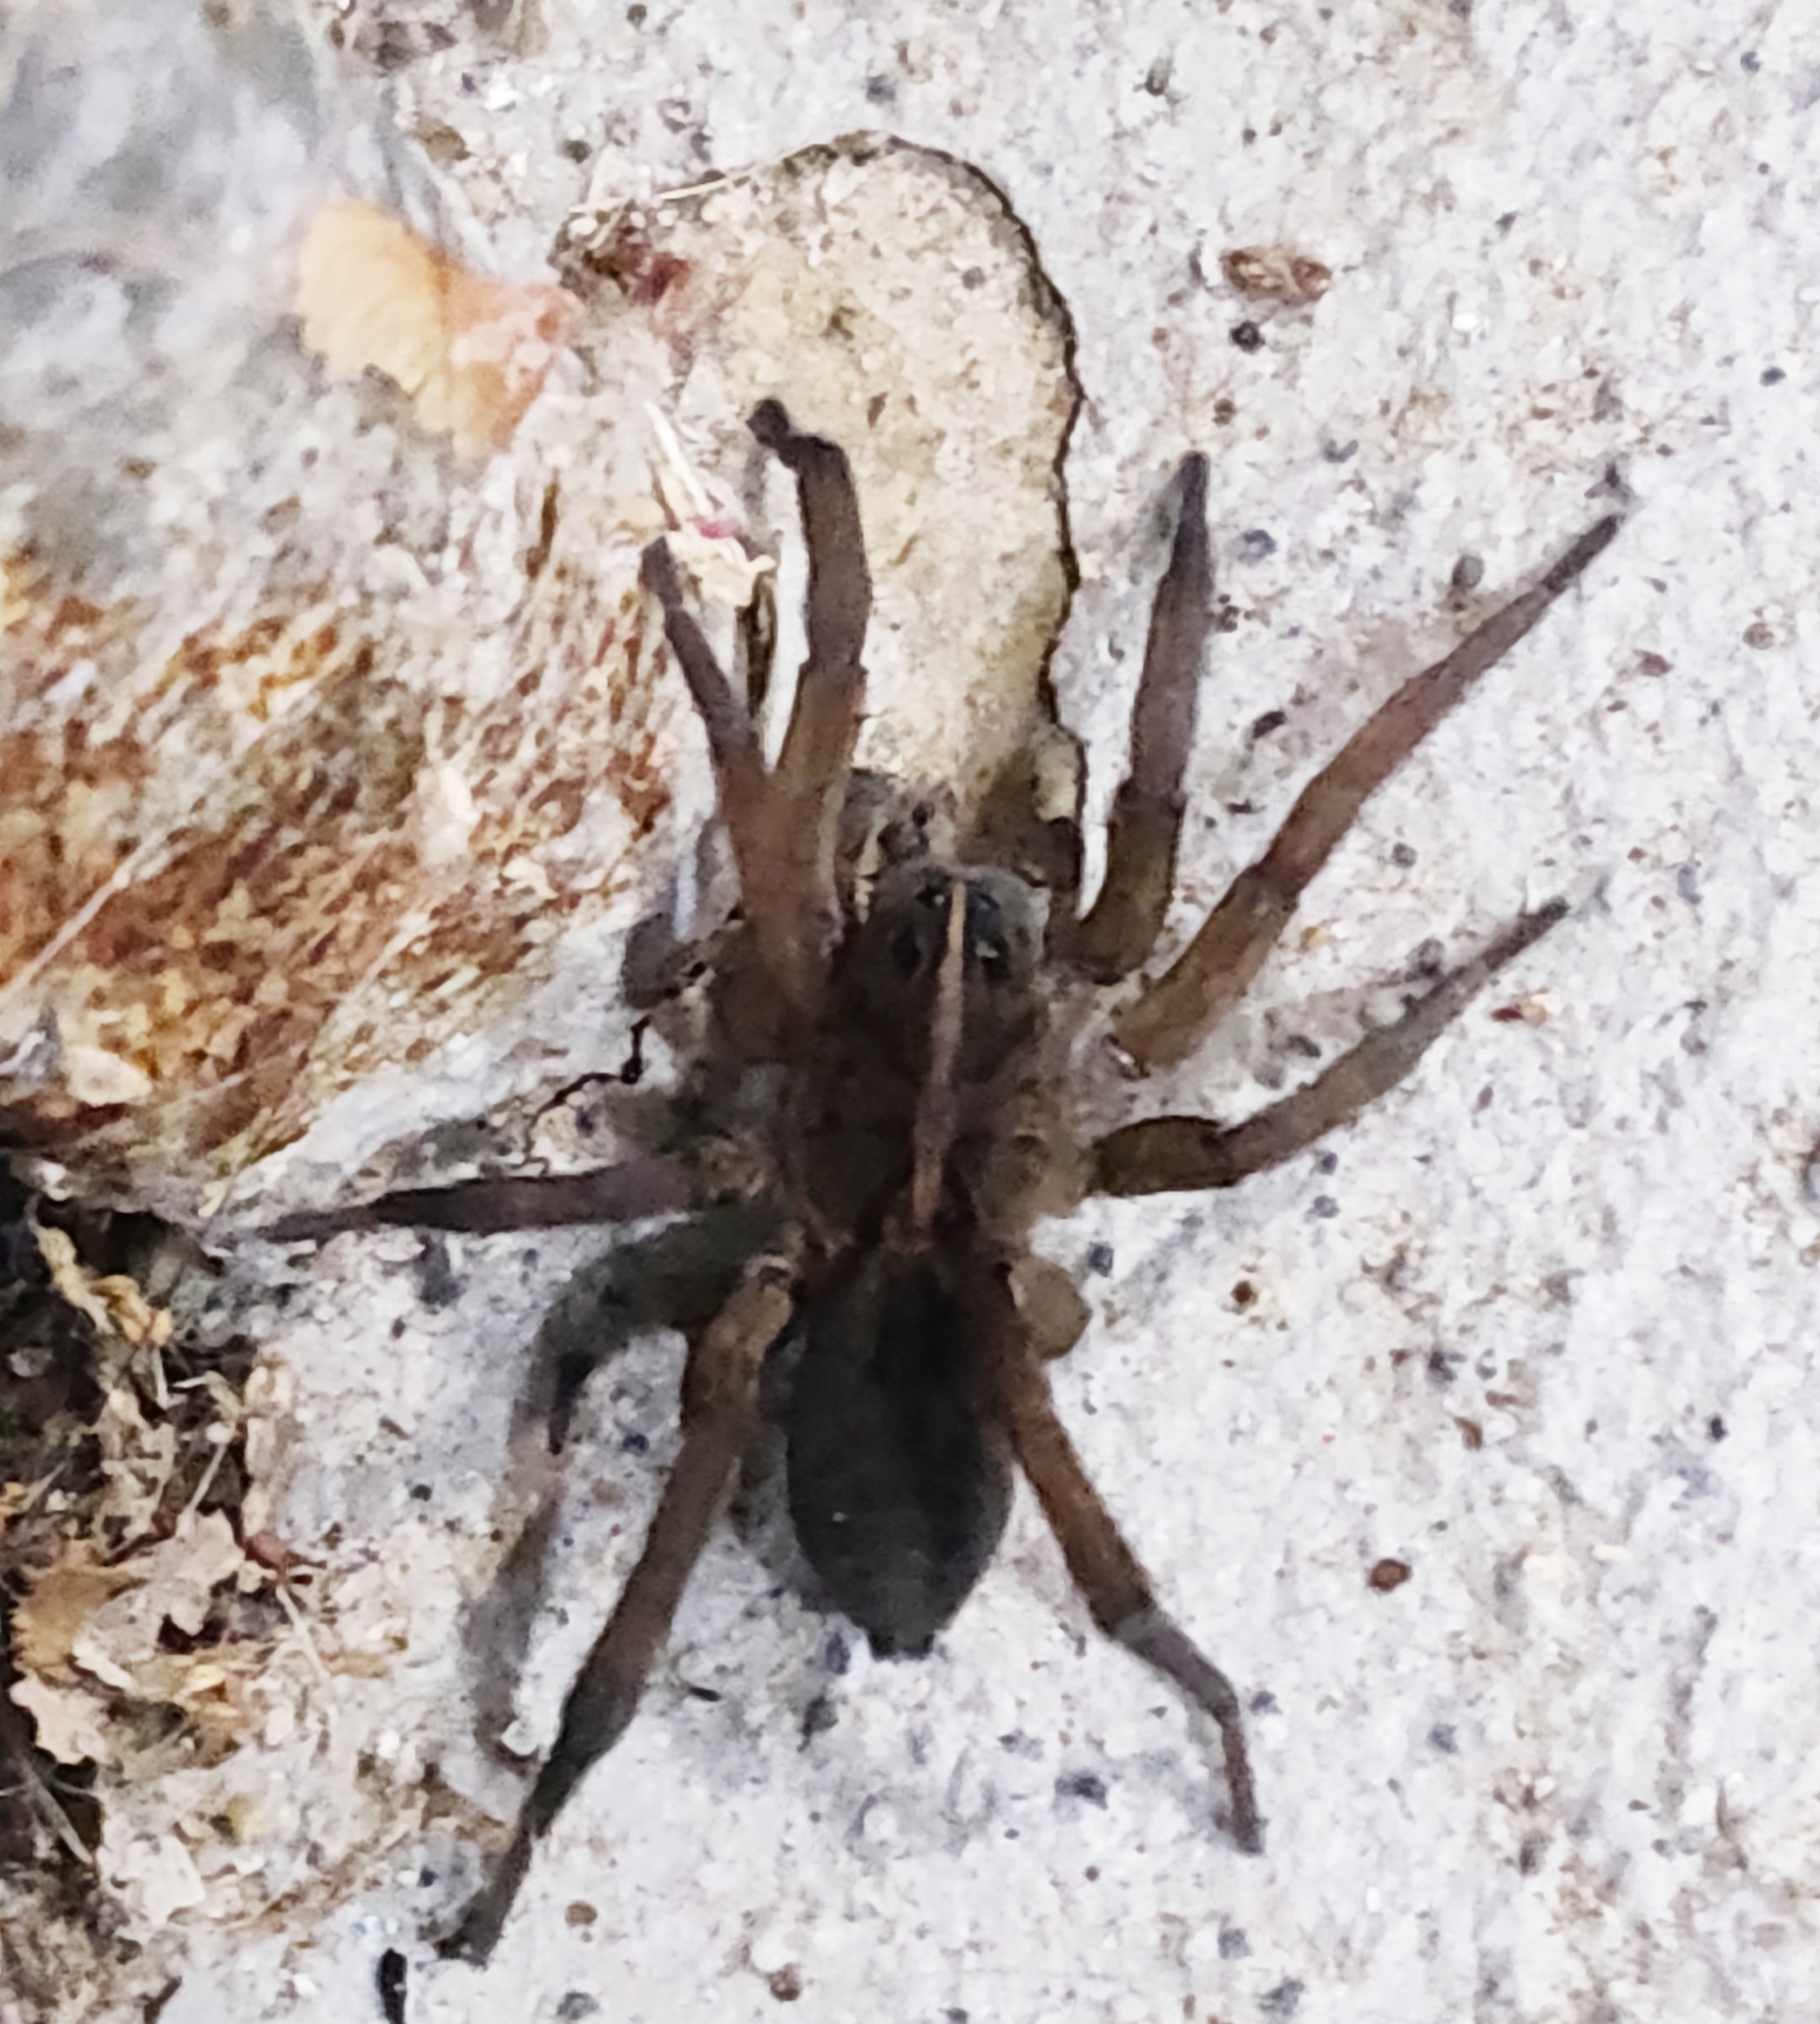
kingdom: Animalia
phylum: Arthropoda
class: Arachnida
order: Araneae
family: Lycosidae
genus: Tigrosa
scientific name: Tigrosa helluo
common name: Wetland giant wolf spider
